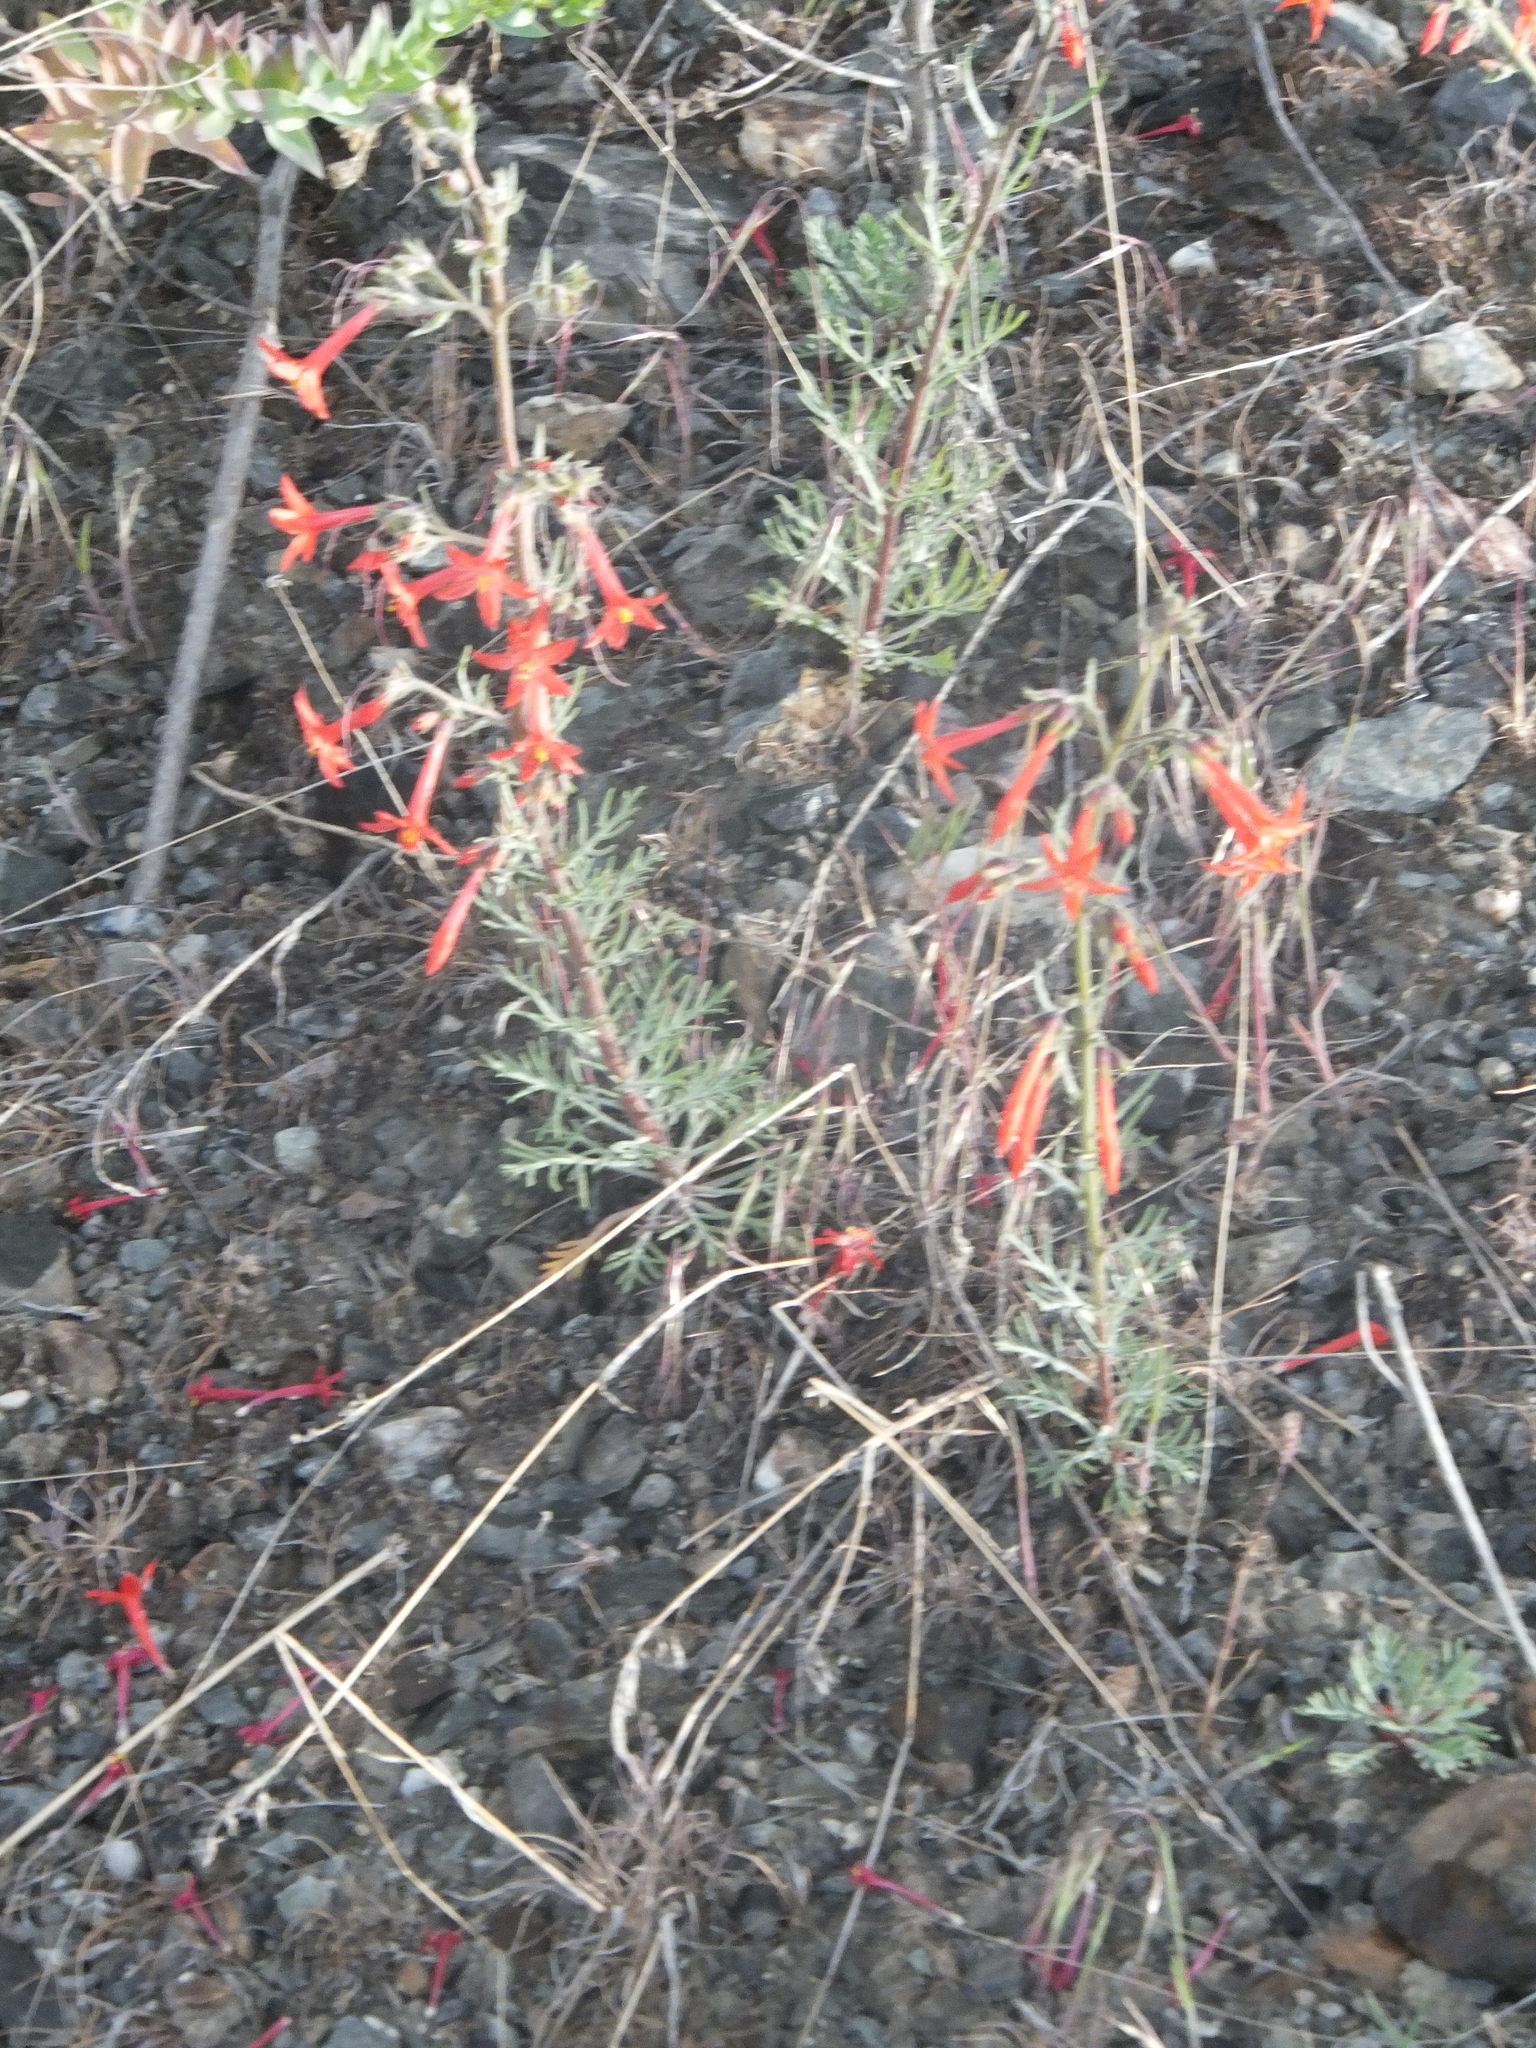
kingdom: Plantae
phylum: Tracheophyta
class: Magnoliopsida
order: Ericales
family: Polemoniaceae
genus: Ipomopsis
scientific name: Ipomopsis aggregata
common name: Scarlet gilia
